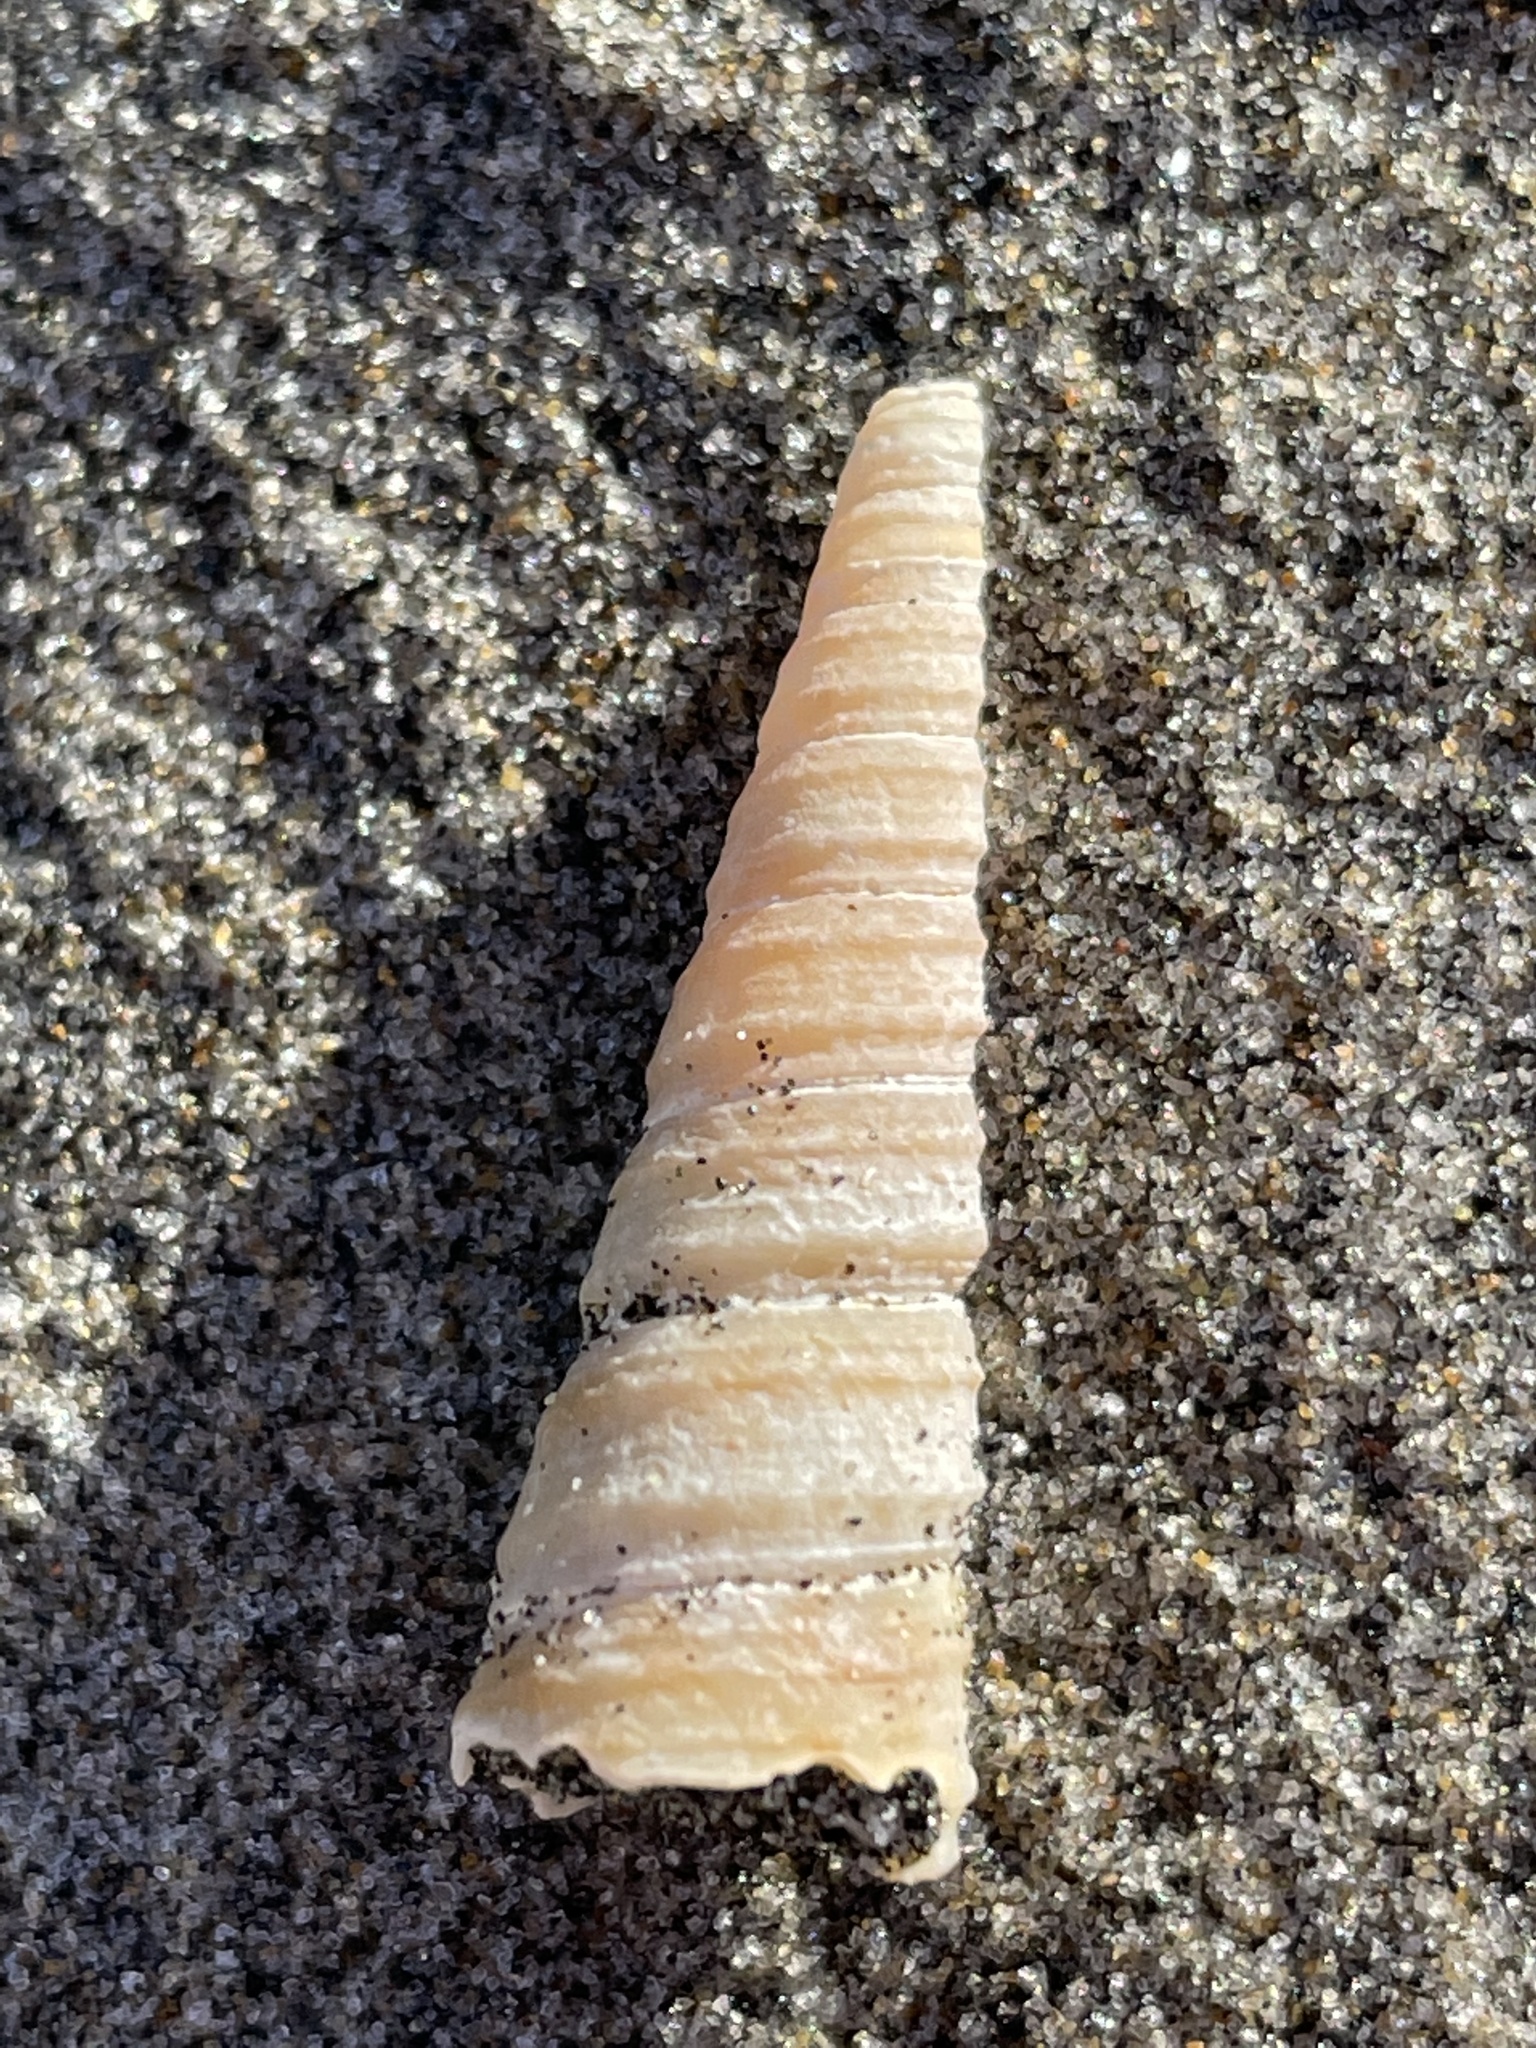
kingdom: Animalia
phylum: Mollusca
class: Gastropoda
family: Turritellidae
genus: Turritella
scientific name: Turritella cooperi
